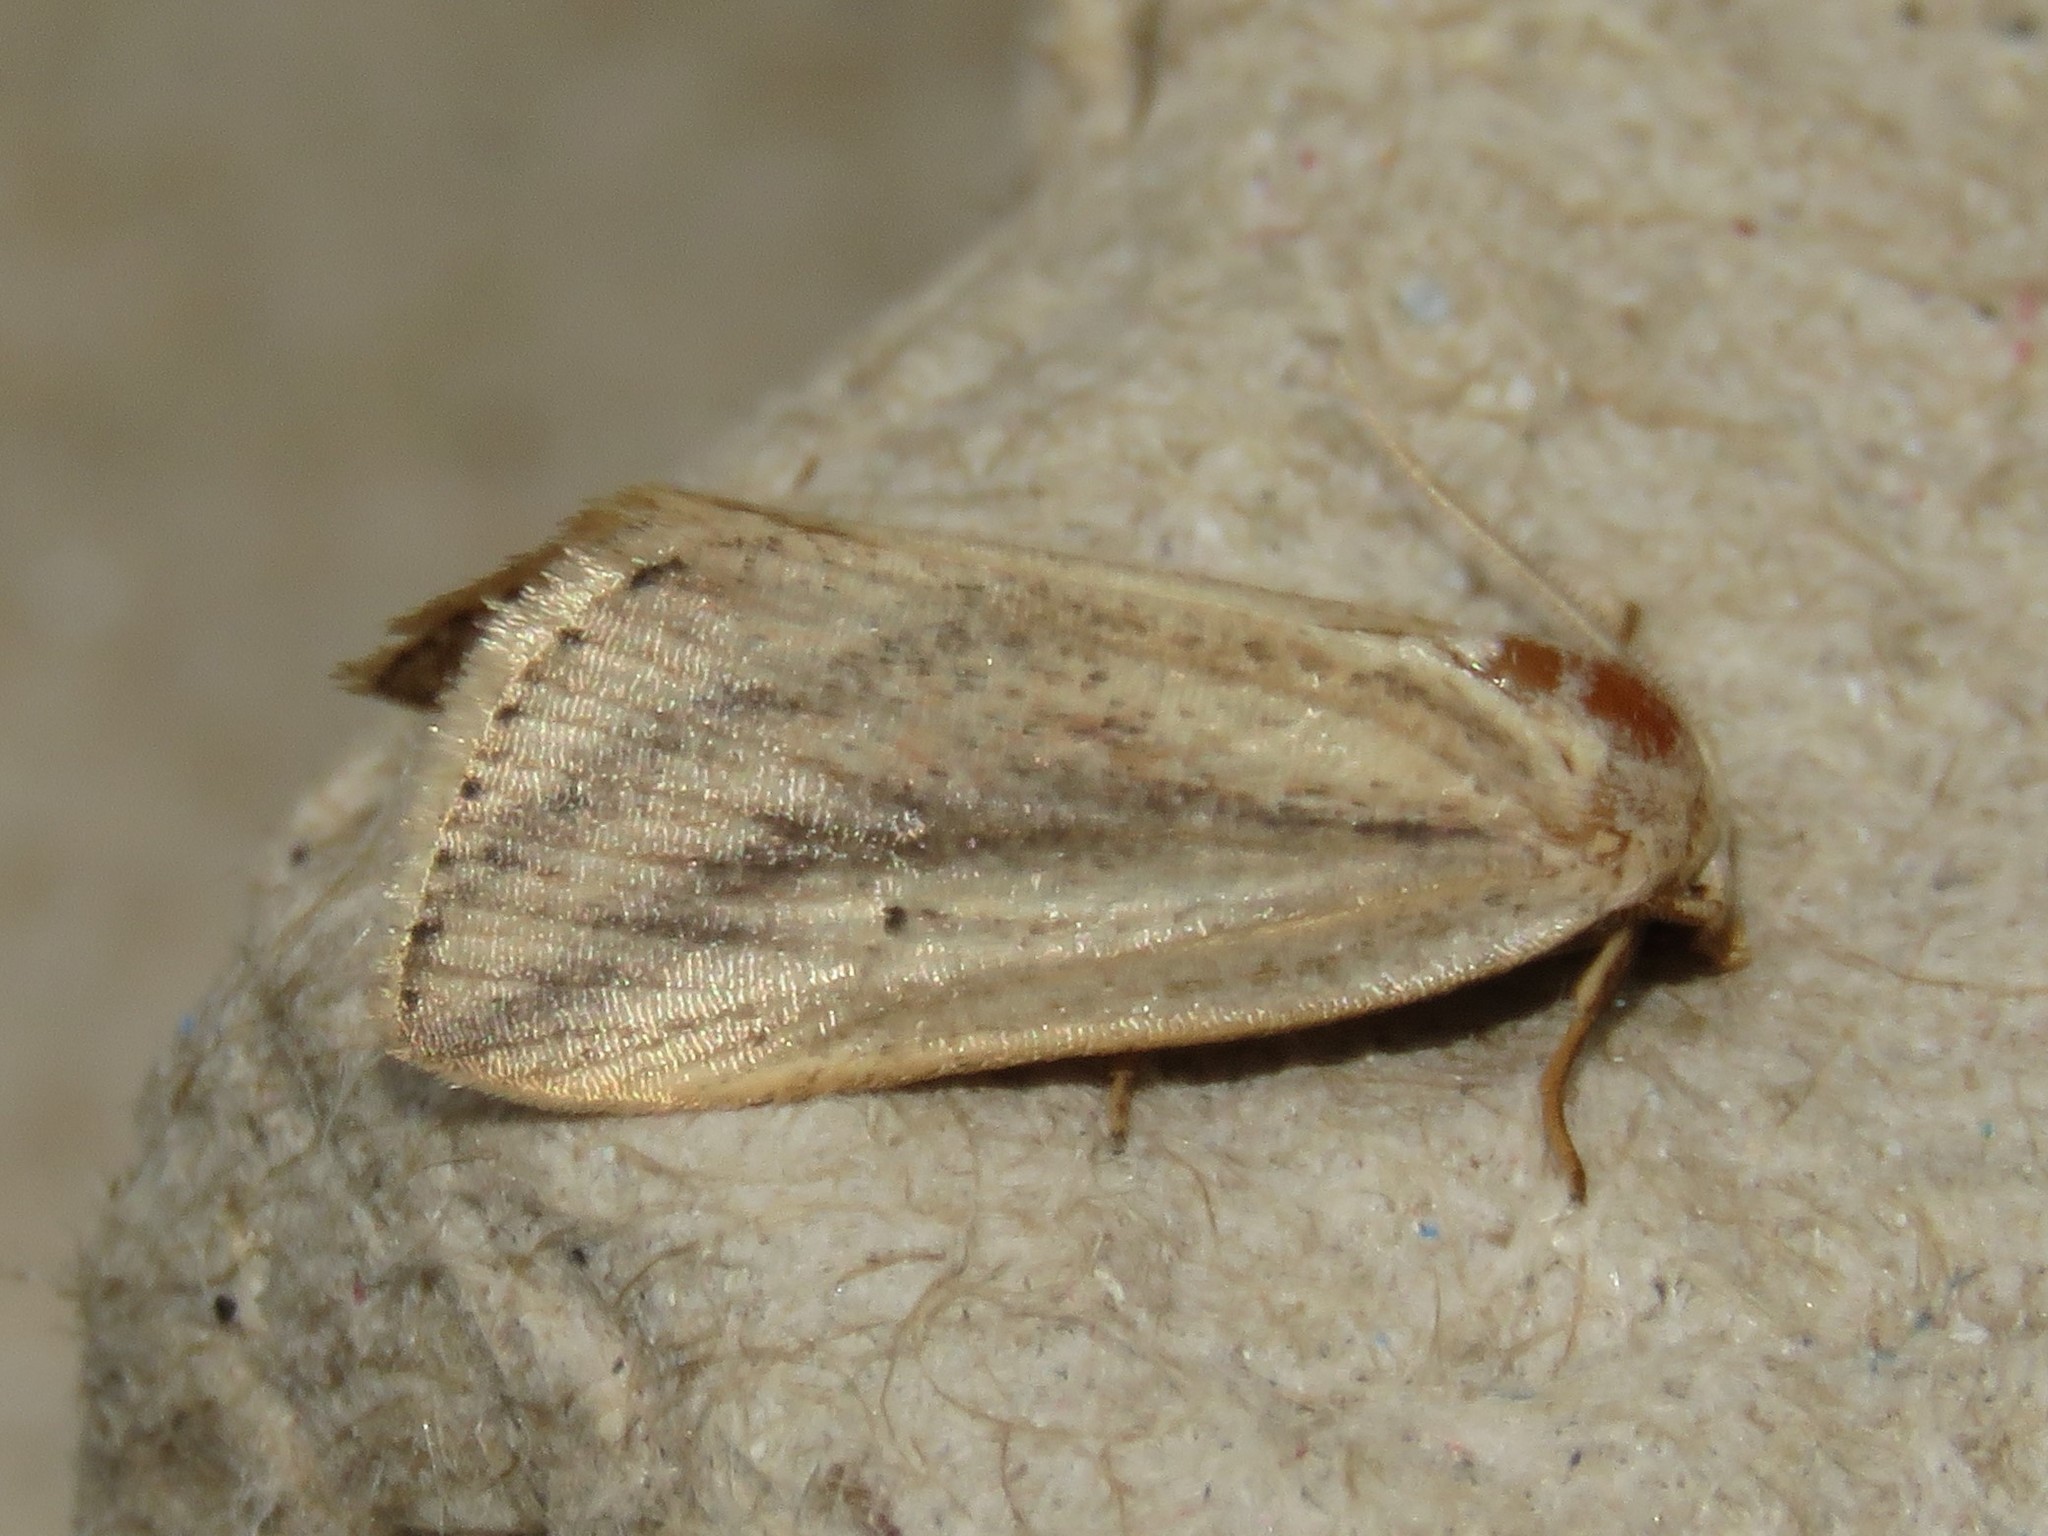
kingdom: Animalia
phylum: Arthropoda
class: Insecta
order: Lepidoptera
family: Noctuidae
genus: Amolita
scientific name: Amolita fessa
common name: Feeble grass moth
